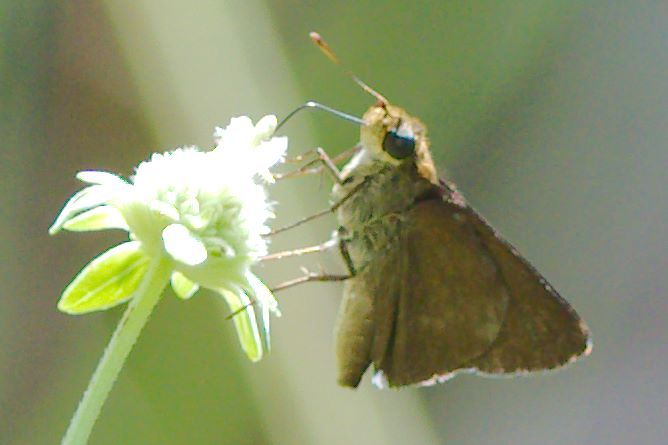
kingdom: Animalia
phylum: Arthropoda
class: Insecta
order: Lepidoptera
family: Hesperiidae
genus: Euphyes
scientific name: Euphyes vestris
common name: Dun skipper
